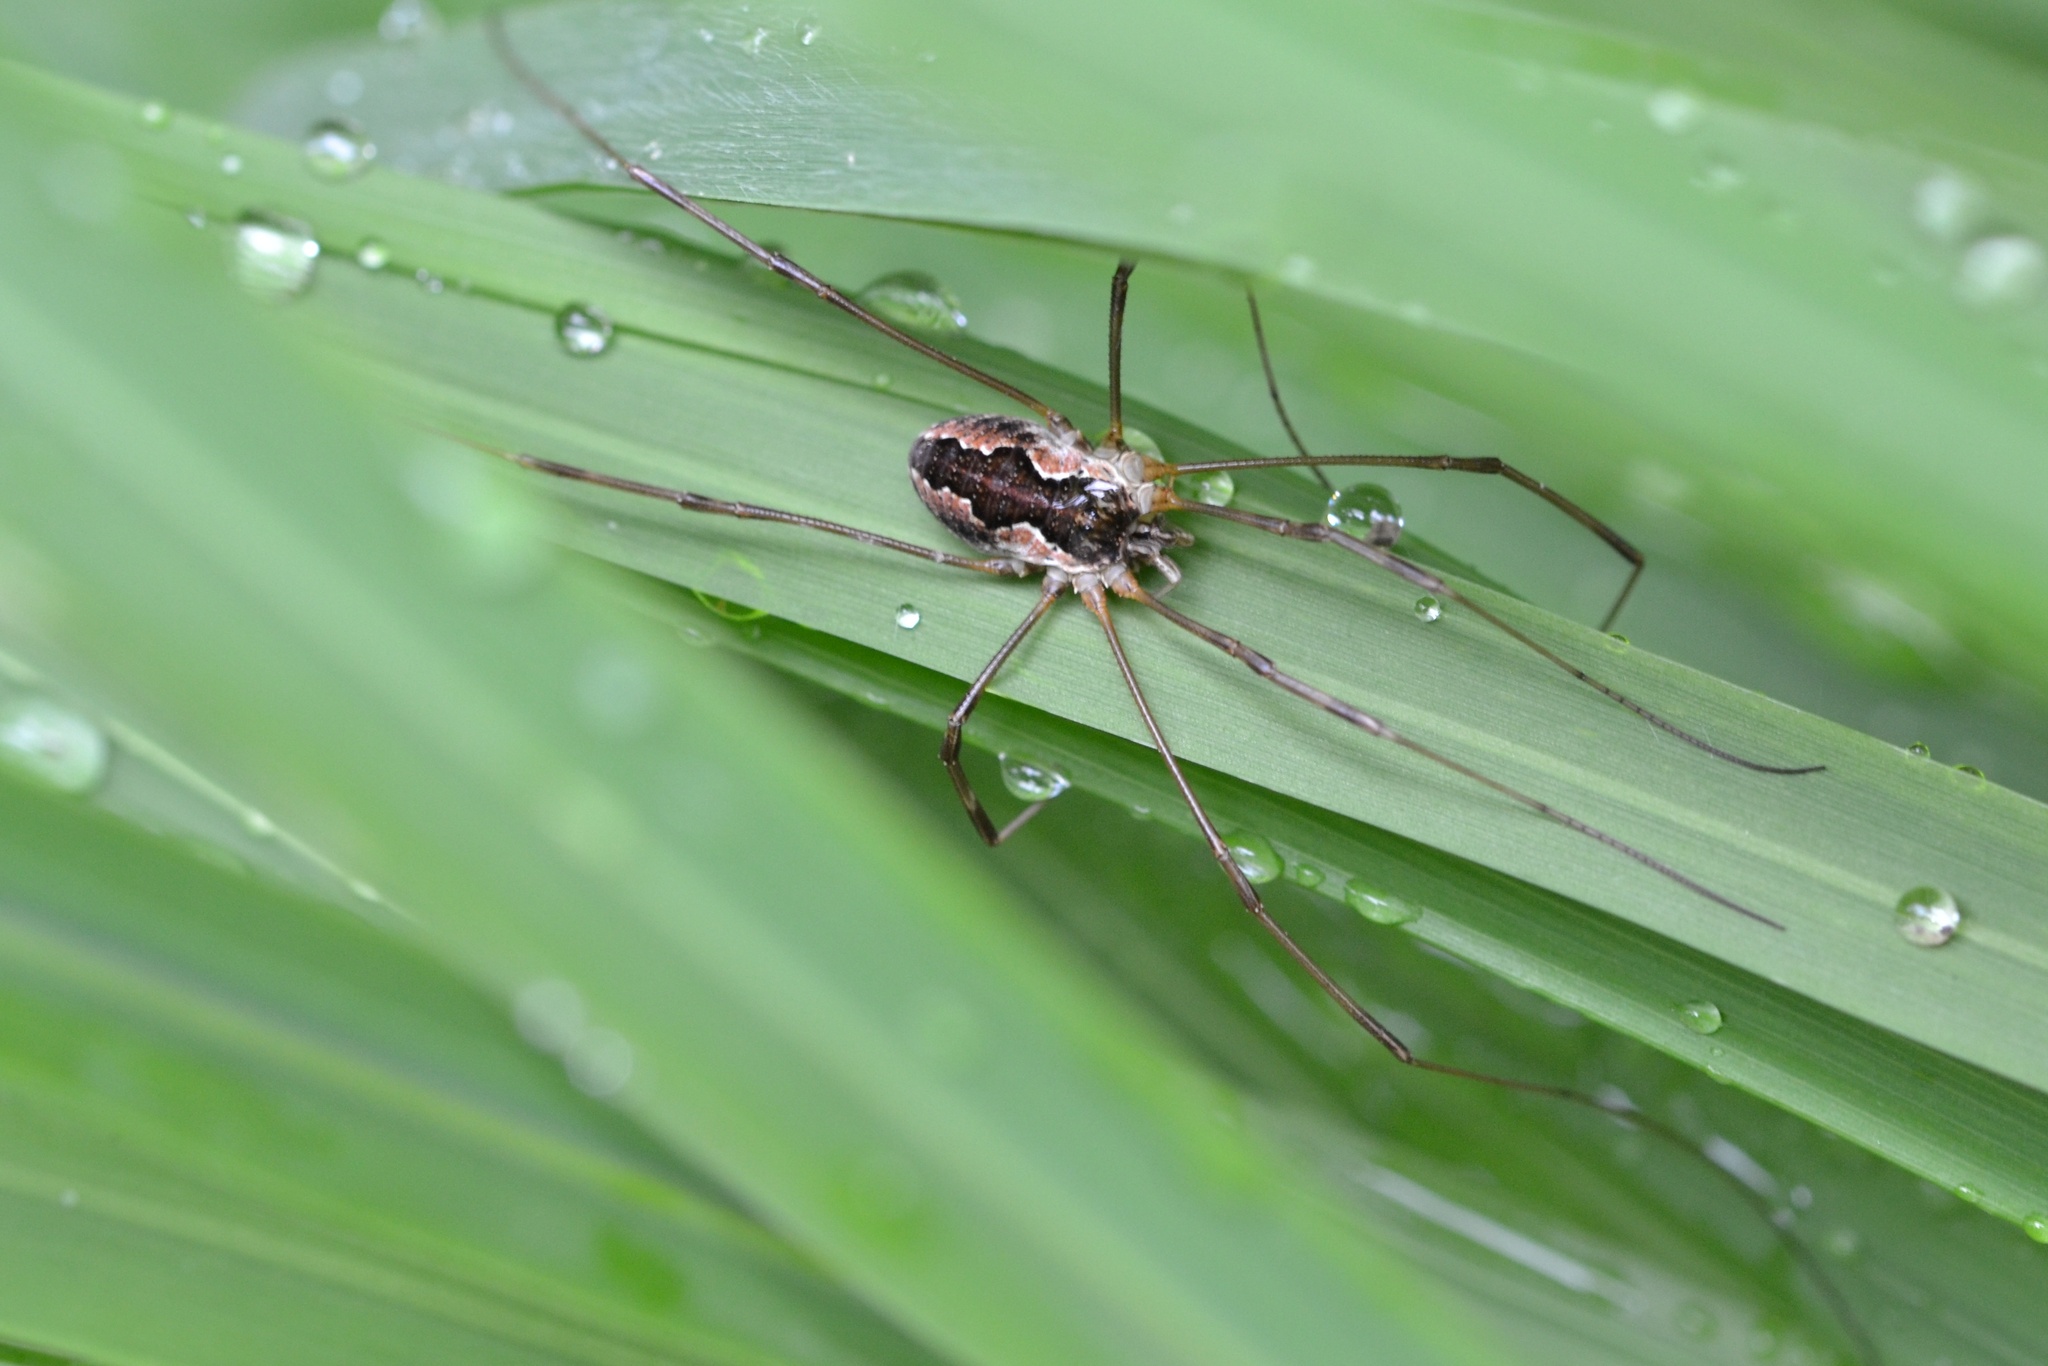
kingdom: Animalia
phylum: Arthropoda
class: Arachnida
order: Opiliones
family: Phalangiidae
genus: Mitopus
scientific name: Mitopus morio
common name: Saddleback harvestman
